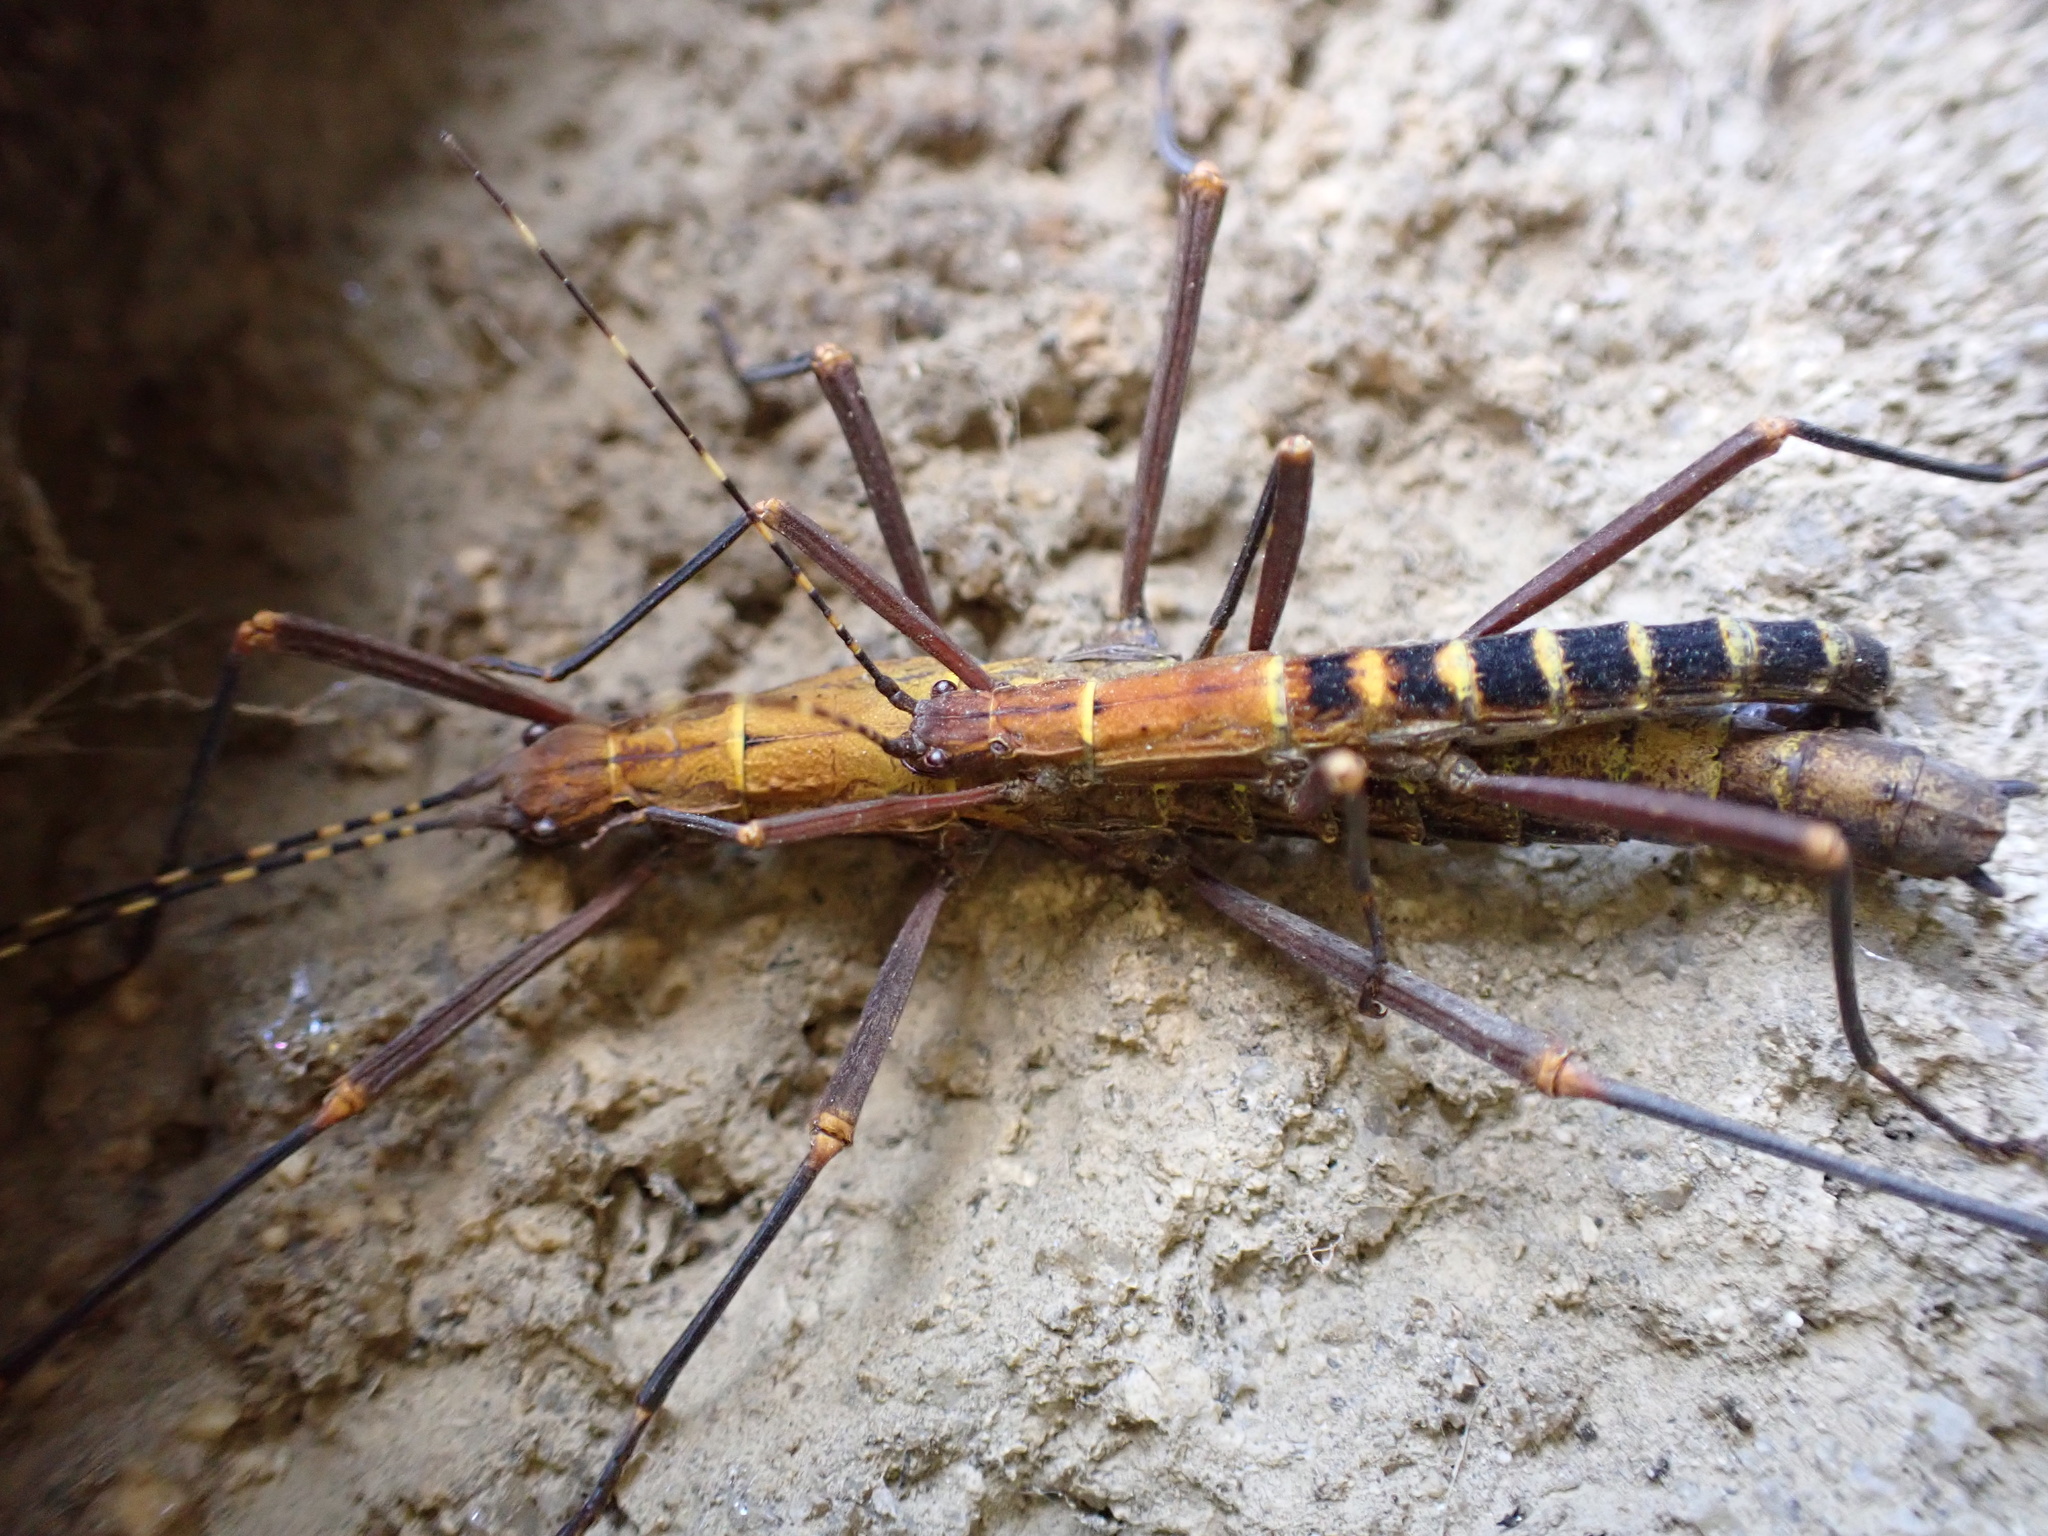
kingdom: Animalia
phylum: Arthropoda
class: Insecta
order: Phasmida
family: Pseudophasmatidae
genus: Peruphasma
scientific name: Peruphasma transversatum
